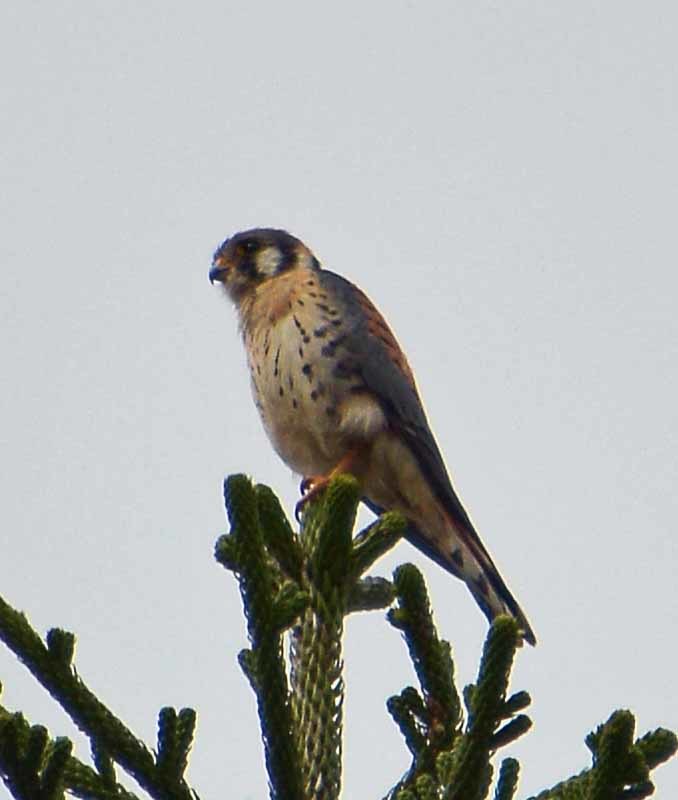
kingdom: Animalia
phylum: Chordata
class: Aves
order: Falconiformes
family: Falconidae
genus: Falco
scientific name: Falco sparverius
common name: American kestrel
